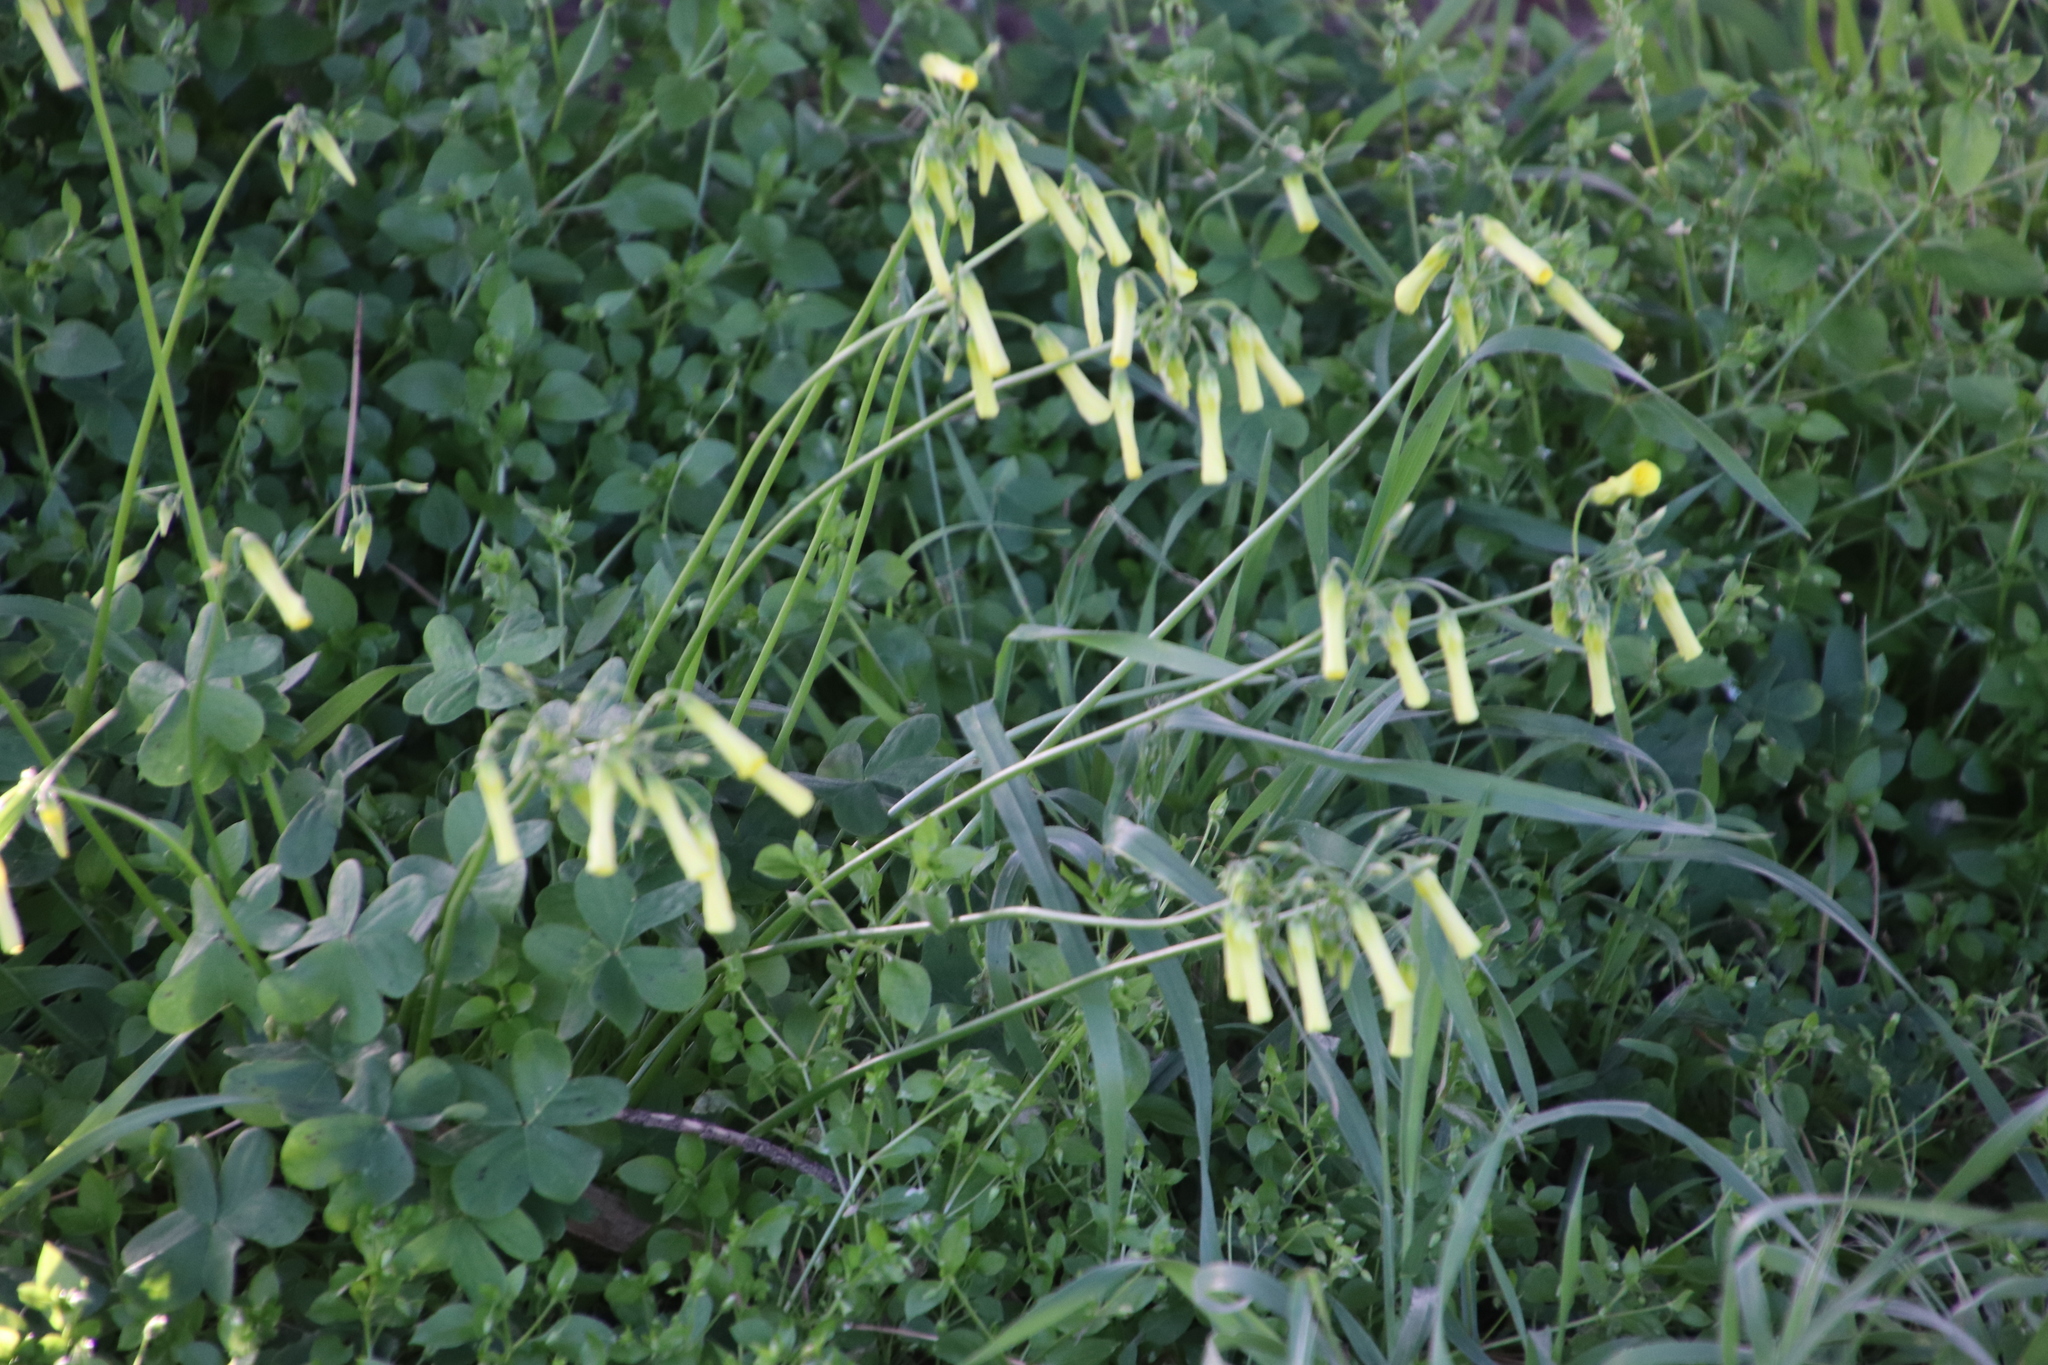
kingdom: Plantae
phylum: Tracheophyta
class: Magnoliopsida
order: Oxalidales
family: Oxalidaceae
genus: Oxalis
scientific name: Oxalis pes-caprae
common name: Bermuda-buttercup
